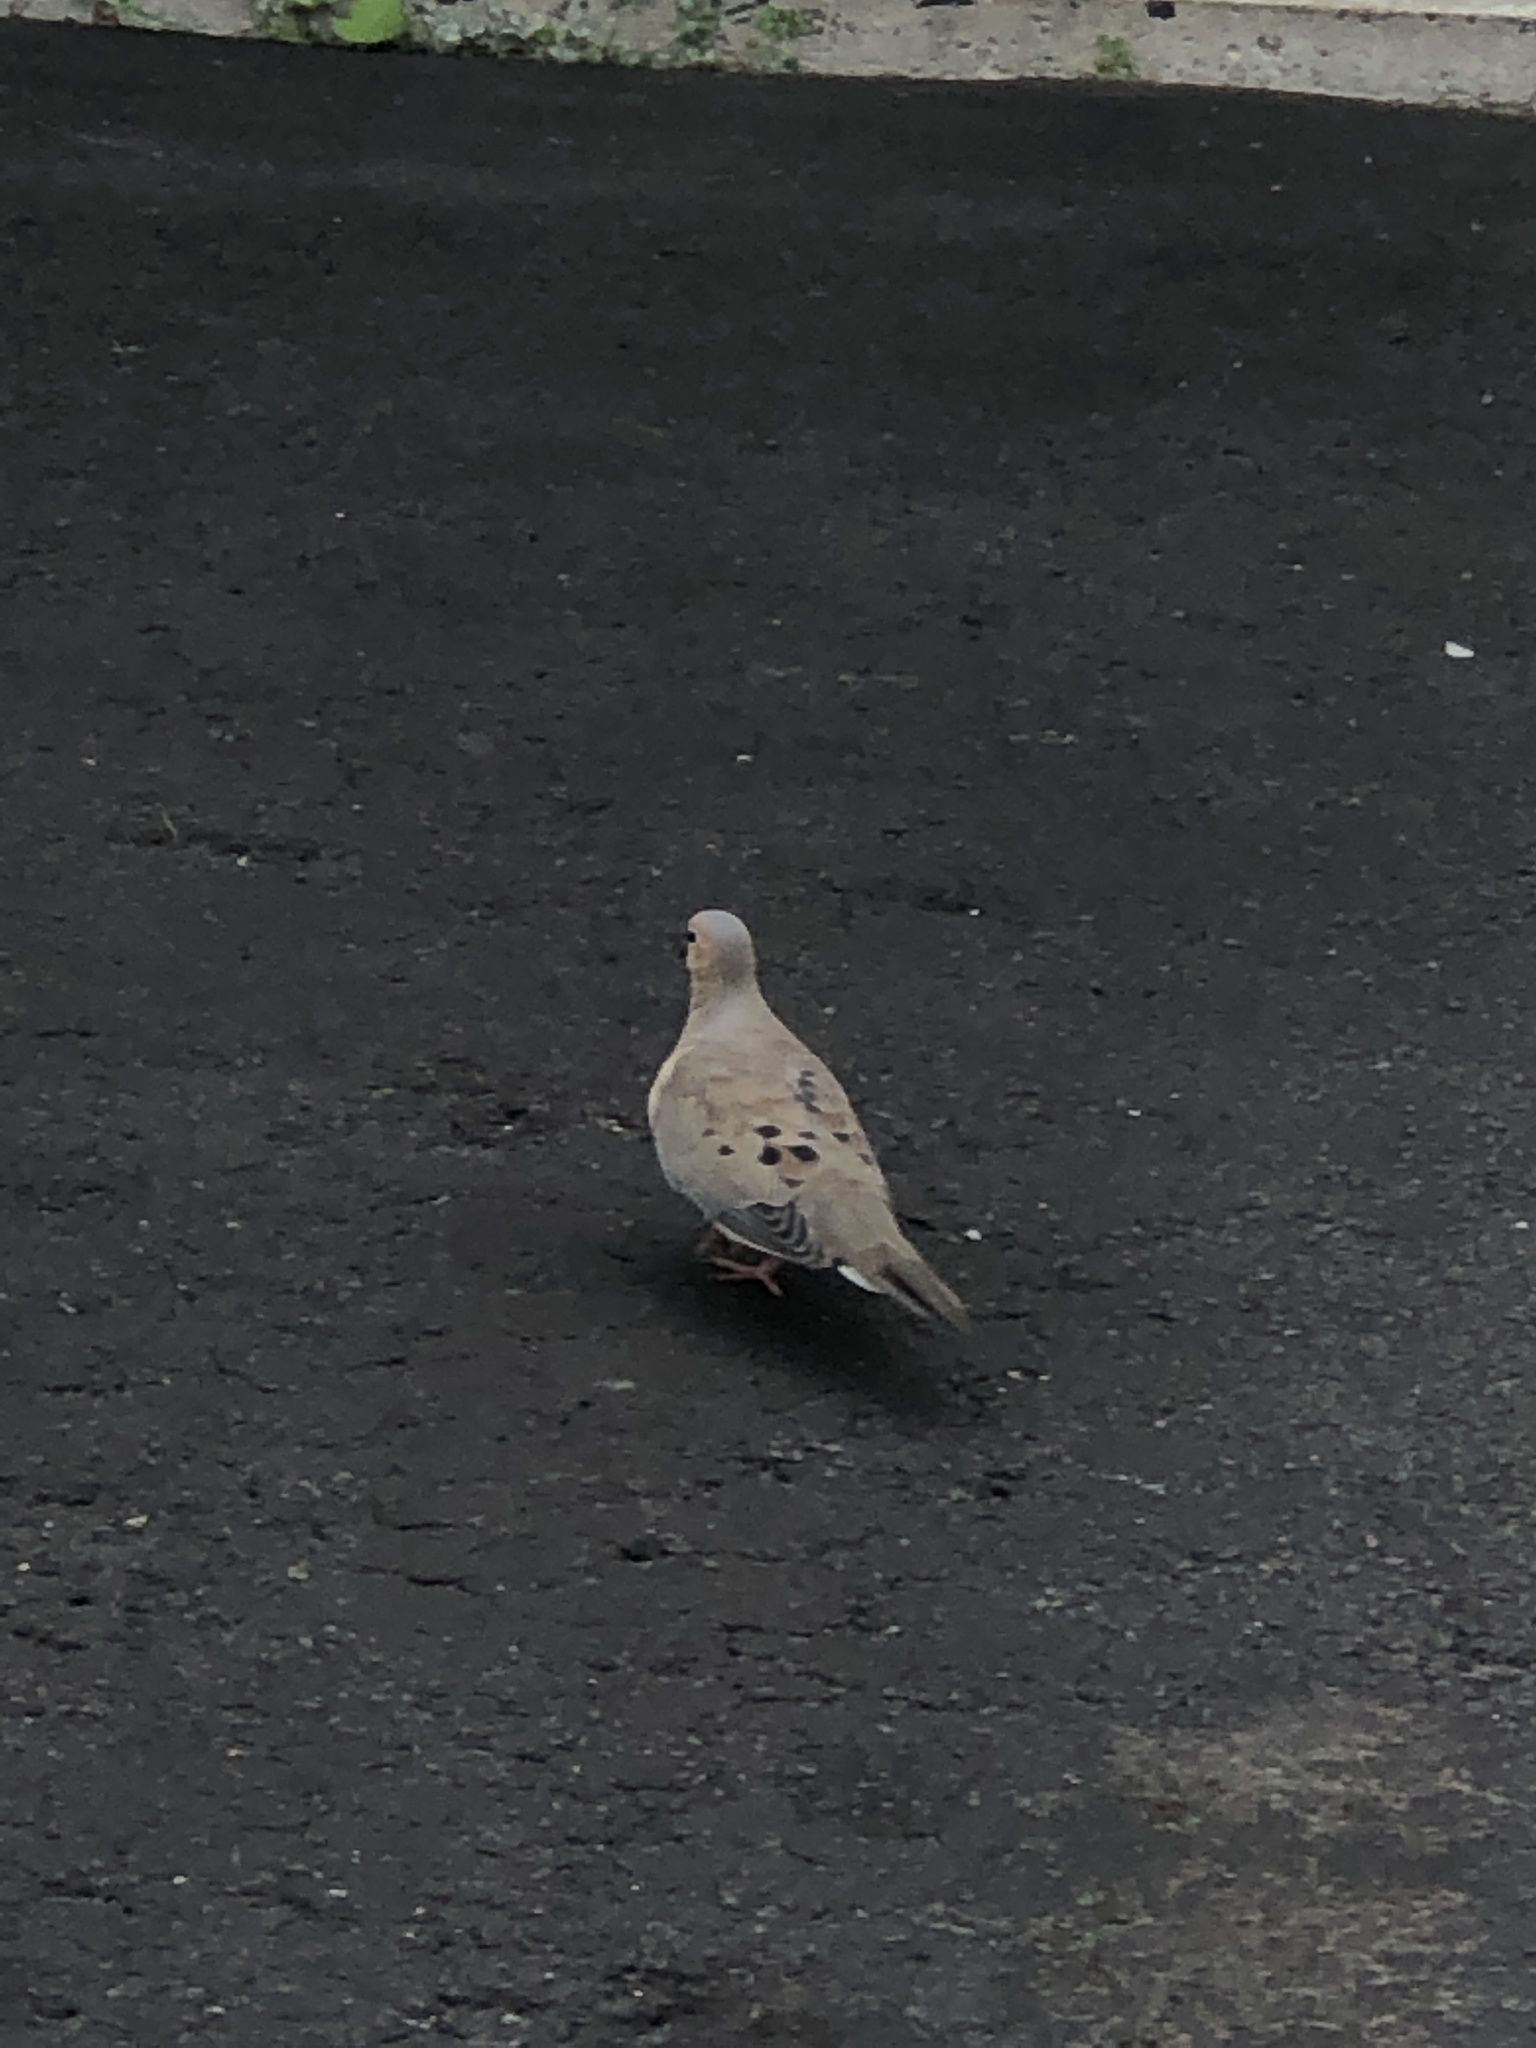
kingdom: Animalia
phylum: Chordata
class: Aves
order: Columbiformes
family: Columbidae
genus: Zenaida
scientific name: Zenaida macroura
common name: Mourning dove
